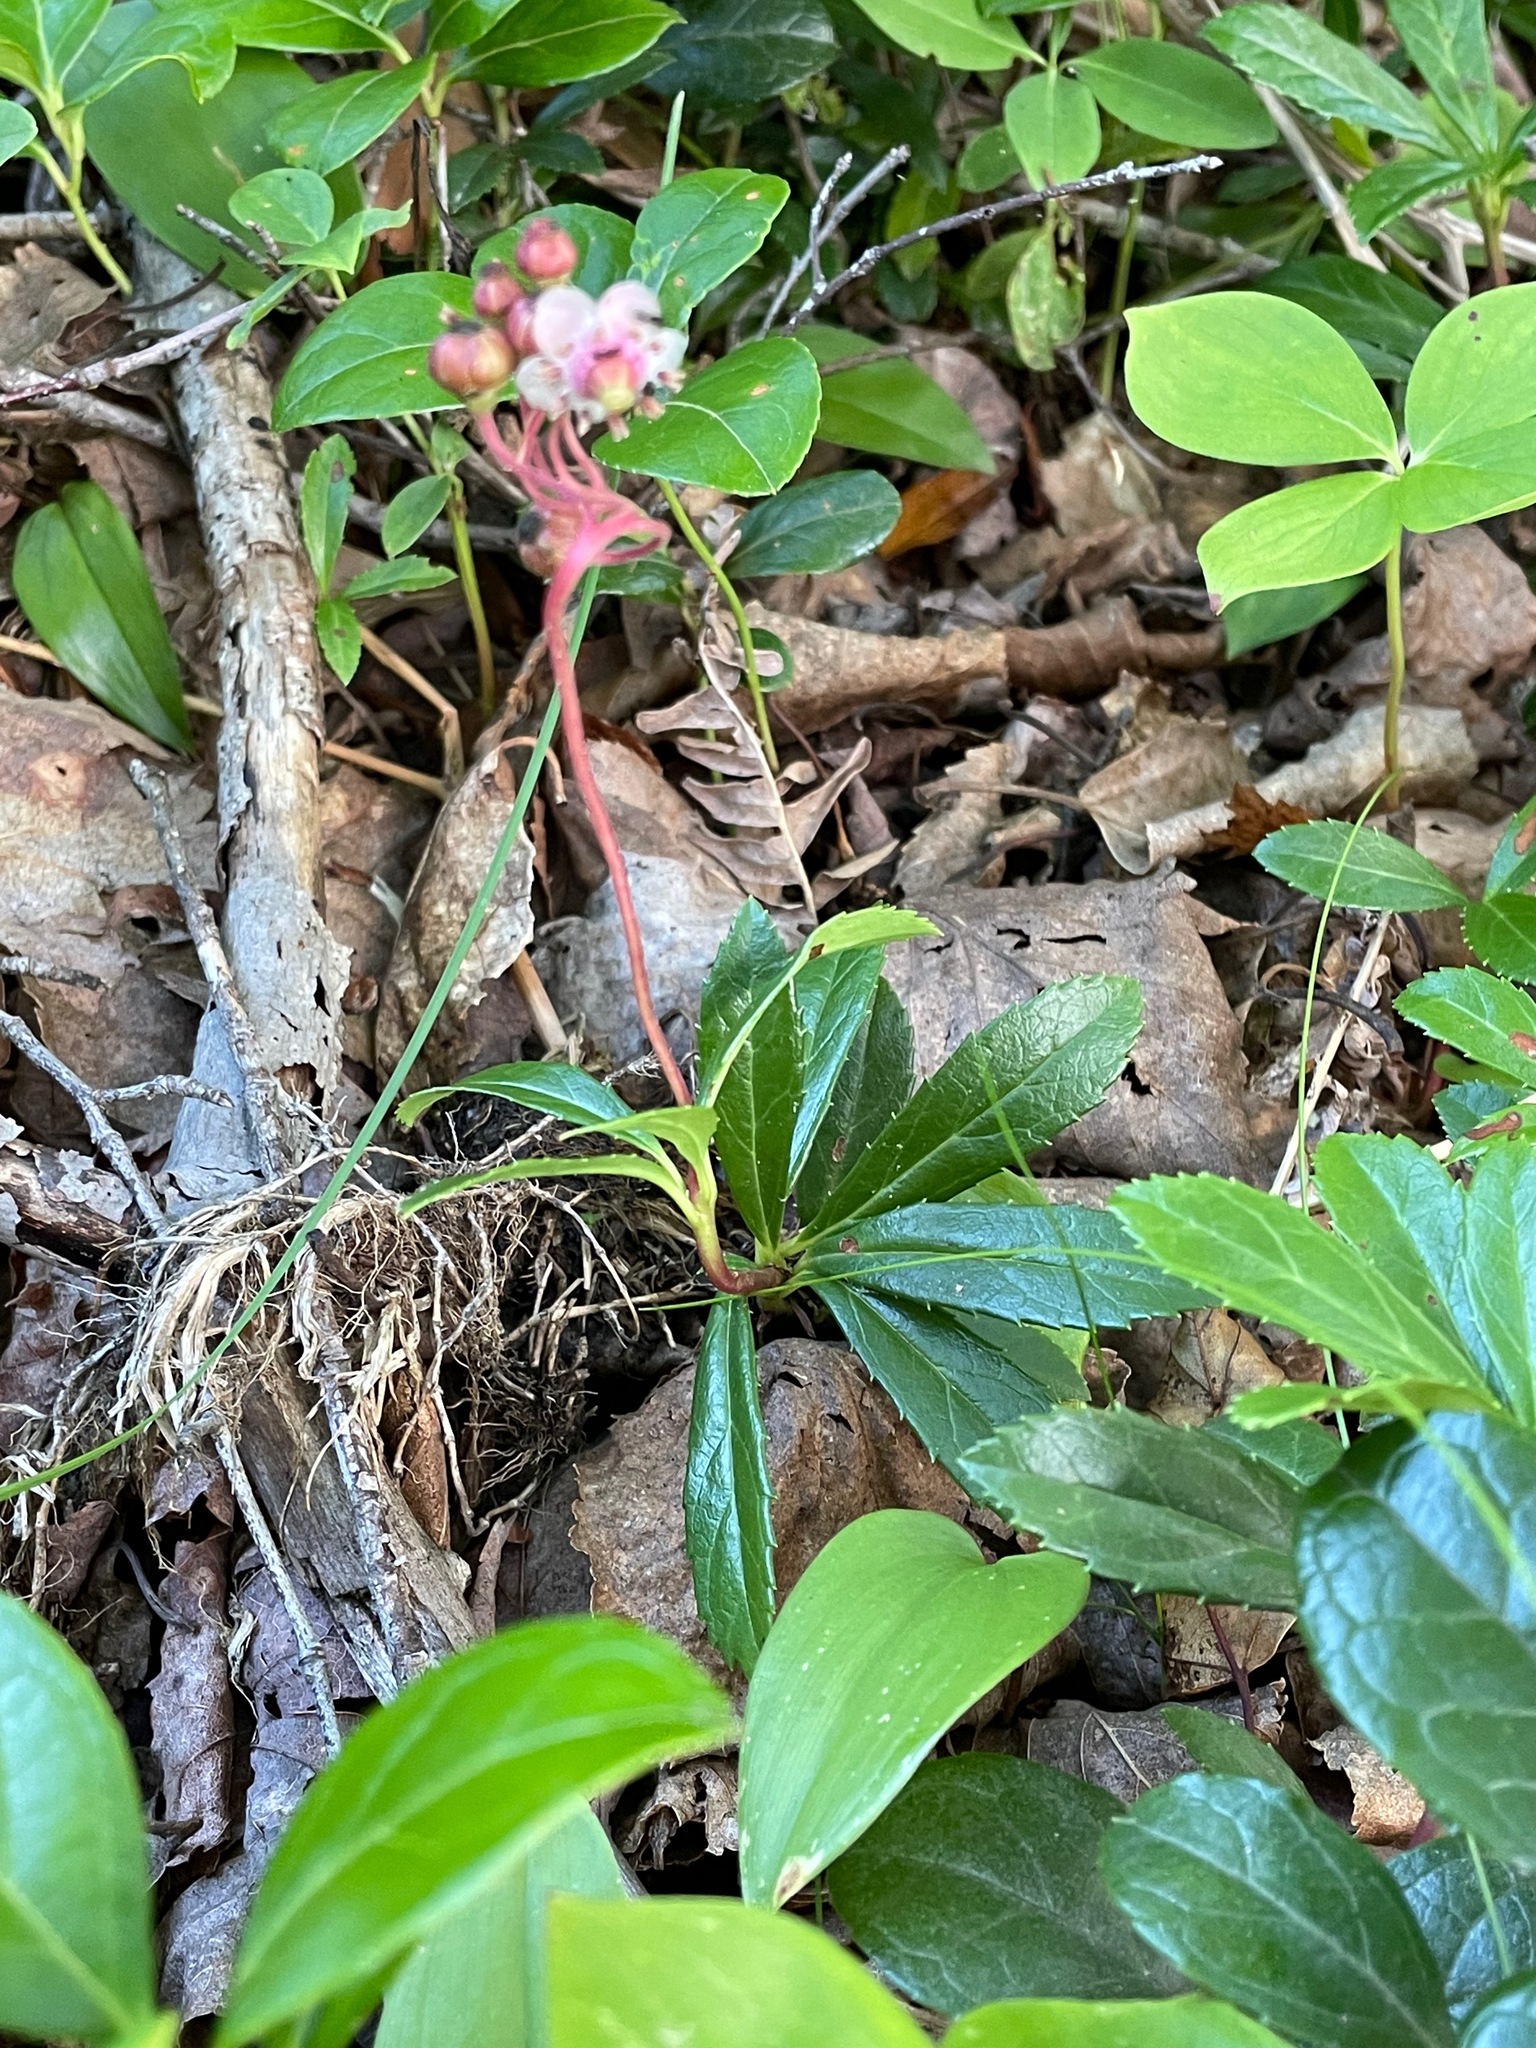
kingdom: Plantae
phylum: Tracheophyta
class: Magnoliopsida
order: Ericales
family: Ericaceae
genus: Chimaphila
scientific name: Chimaphila umbellata
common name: Pipsissewa
